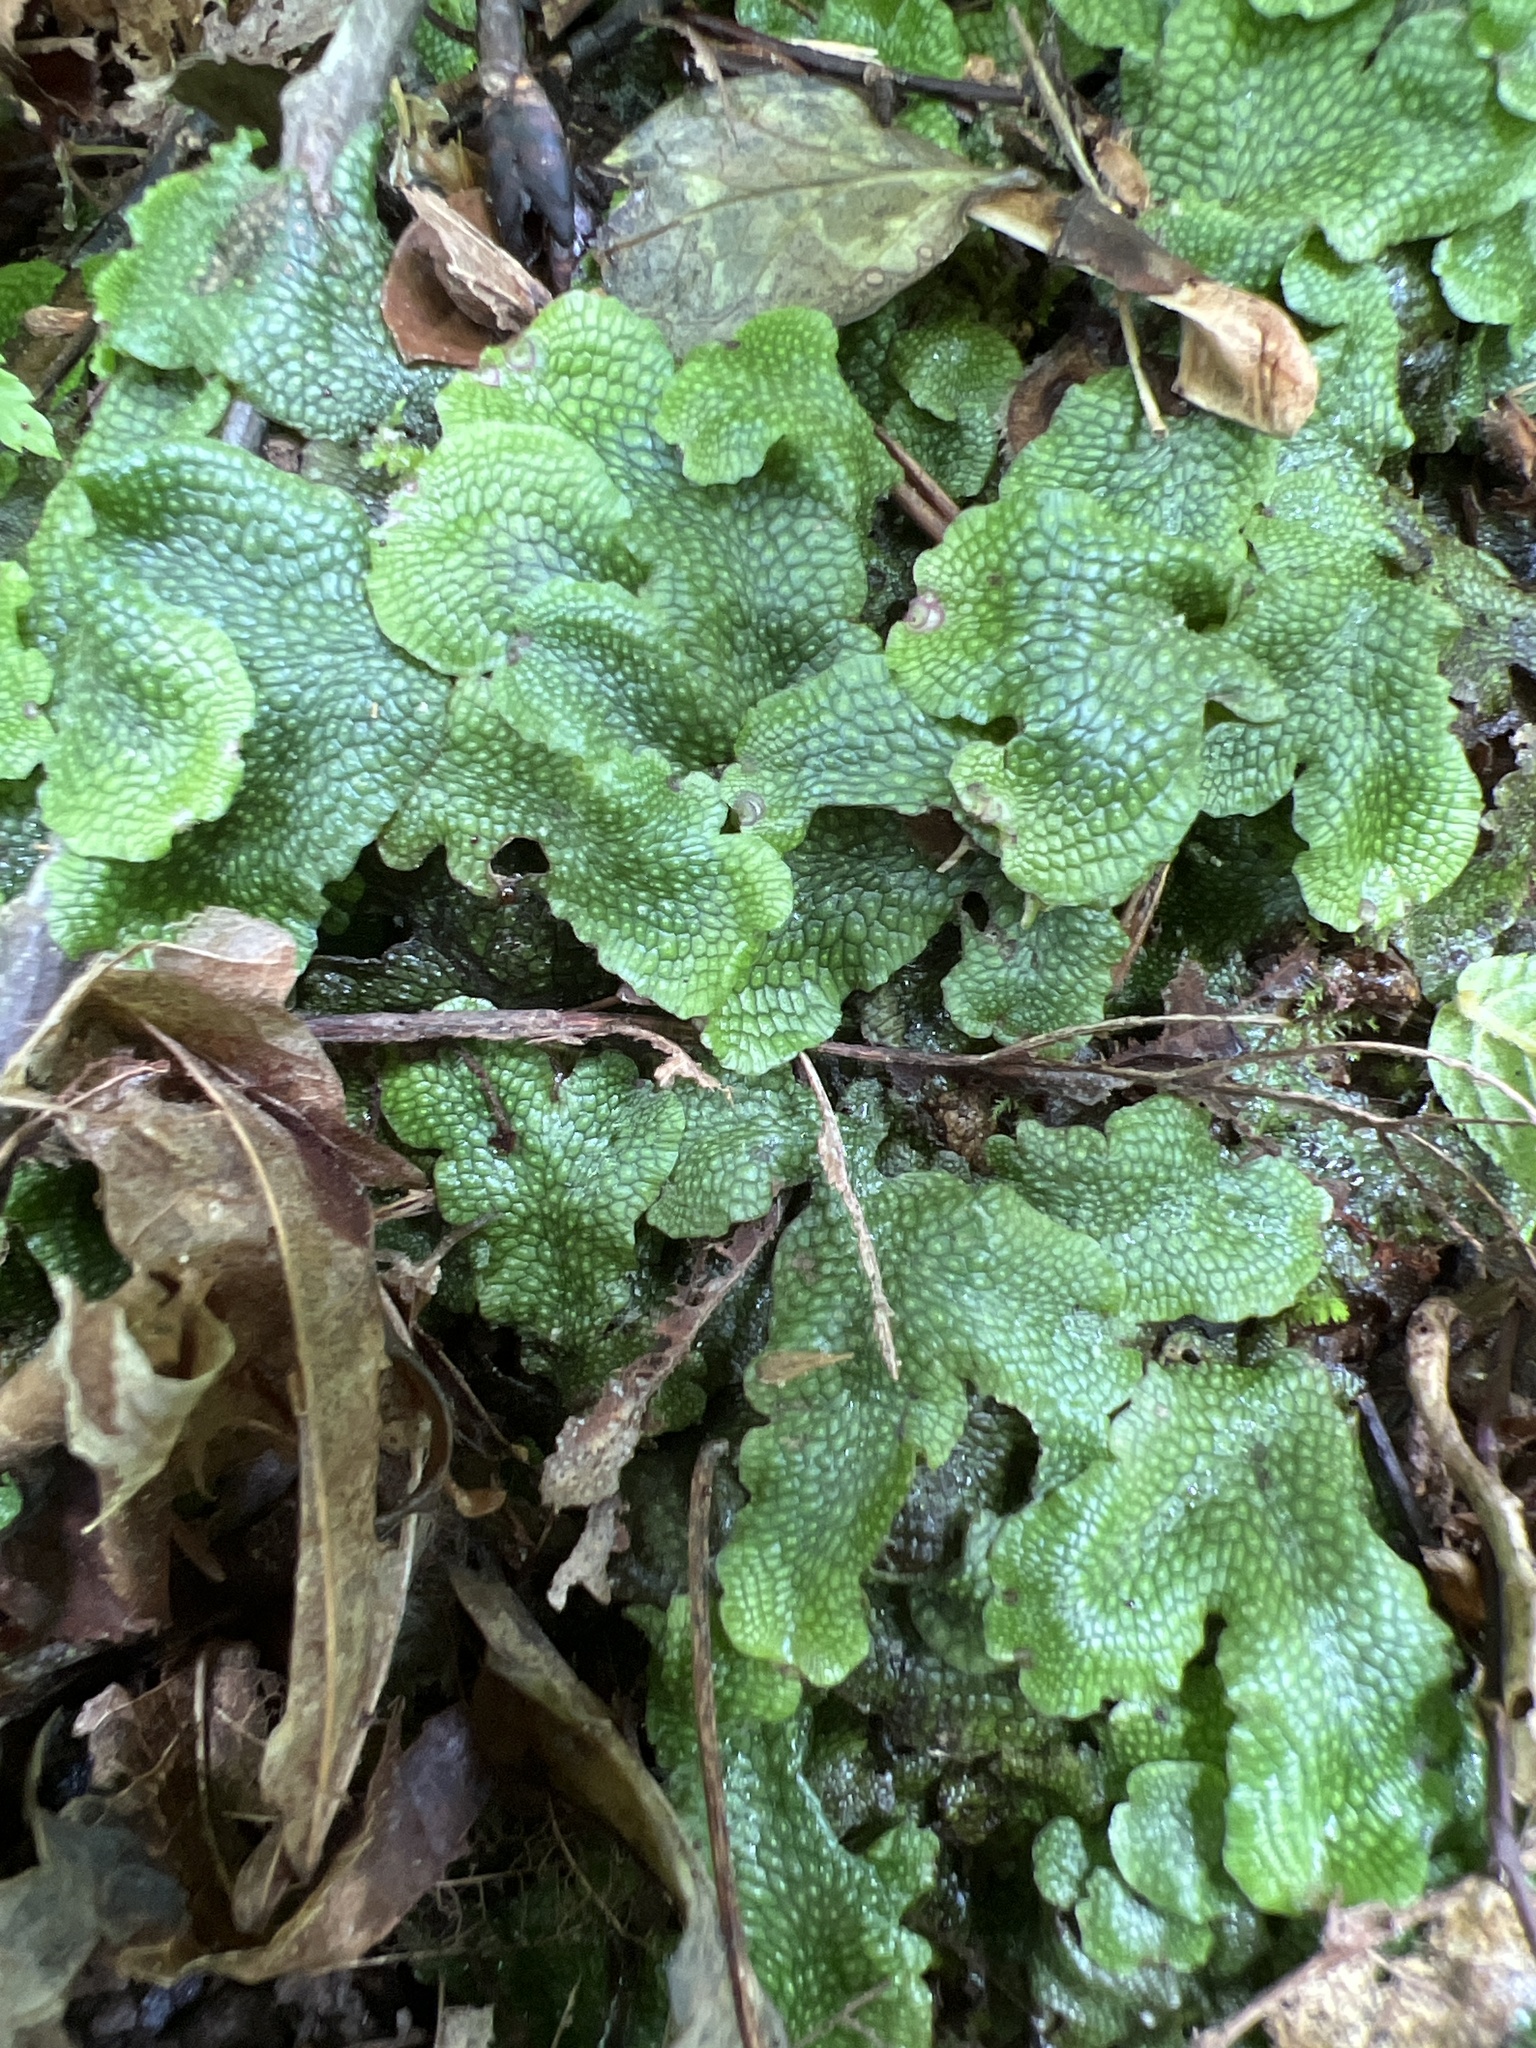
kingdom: Plantae
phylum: Marchantiophyta
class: Marchantiopsida
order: Marchantiales
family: Conocephalaceae
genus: Conocephalum
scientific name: Conocephalum salebrosum
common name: Cat-tongue liverwort
